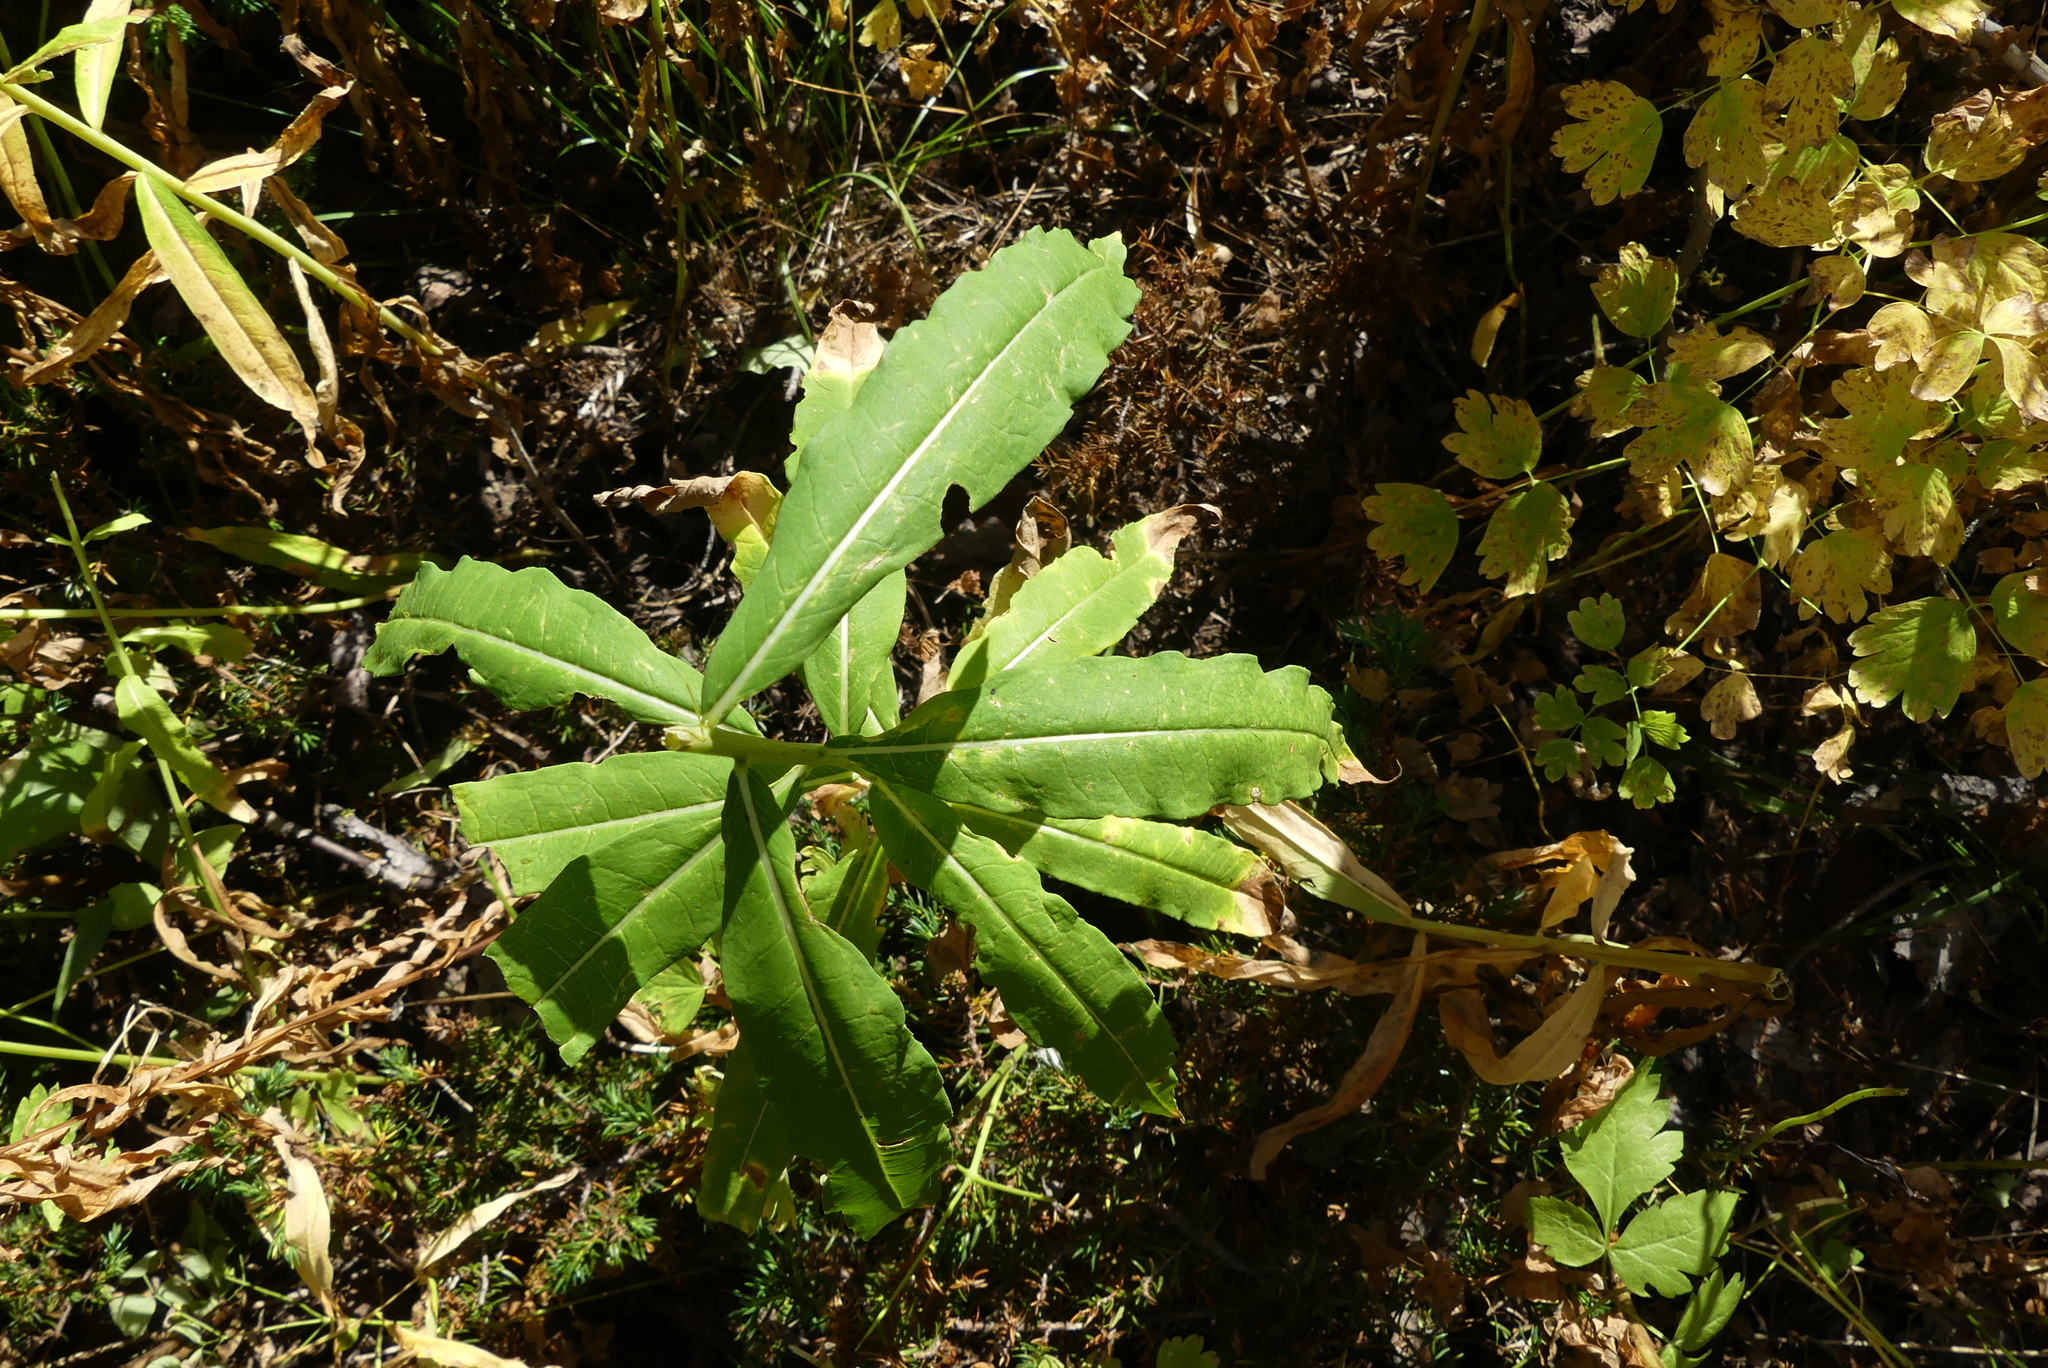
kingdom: Plantae
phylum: Tracheophyta
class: Magnoliopsida
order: Myrtales
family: Onagraceae
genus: Chamaenerion
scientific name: Chamaenerion angustifolium
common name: Fireweed
